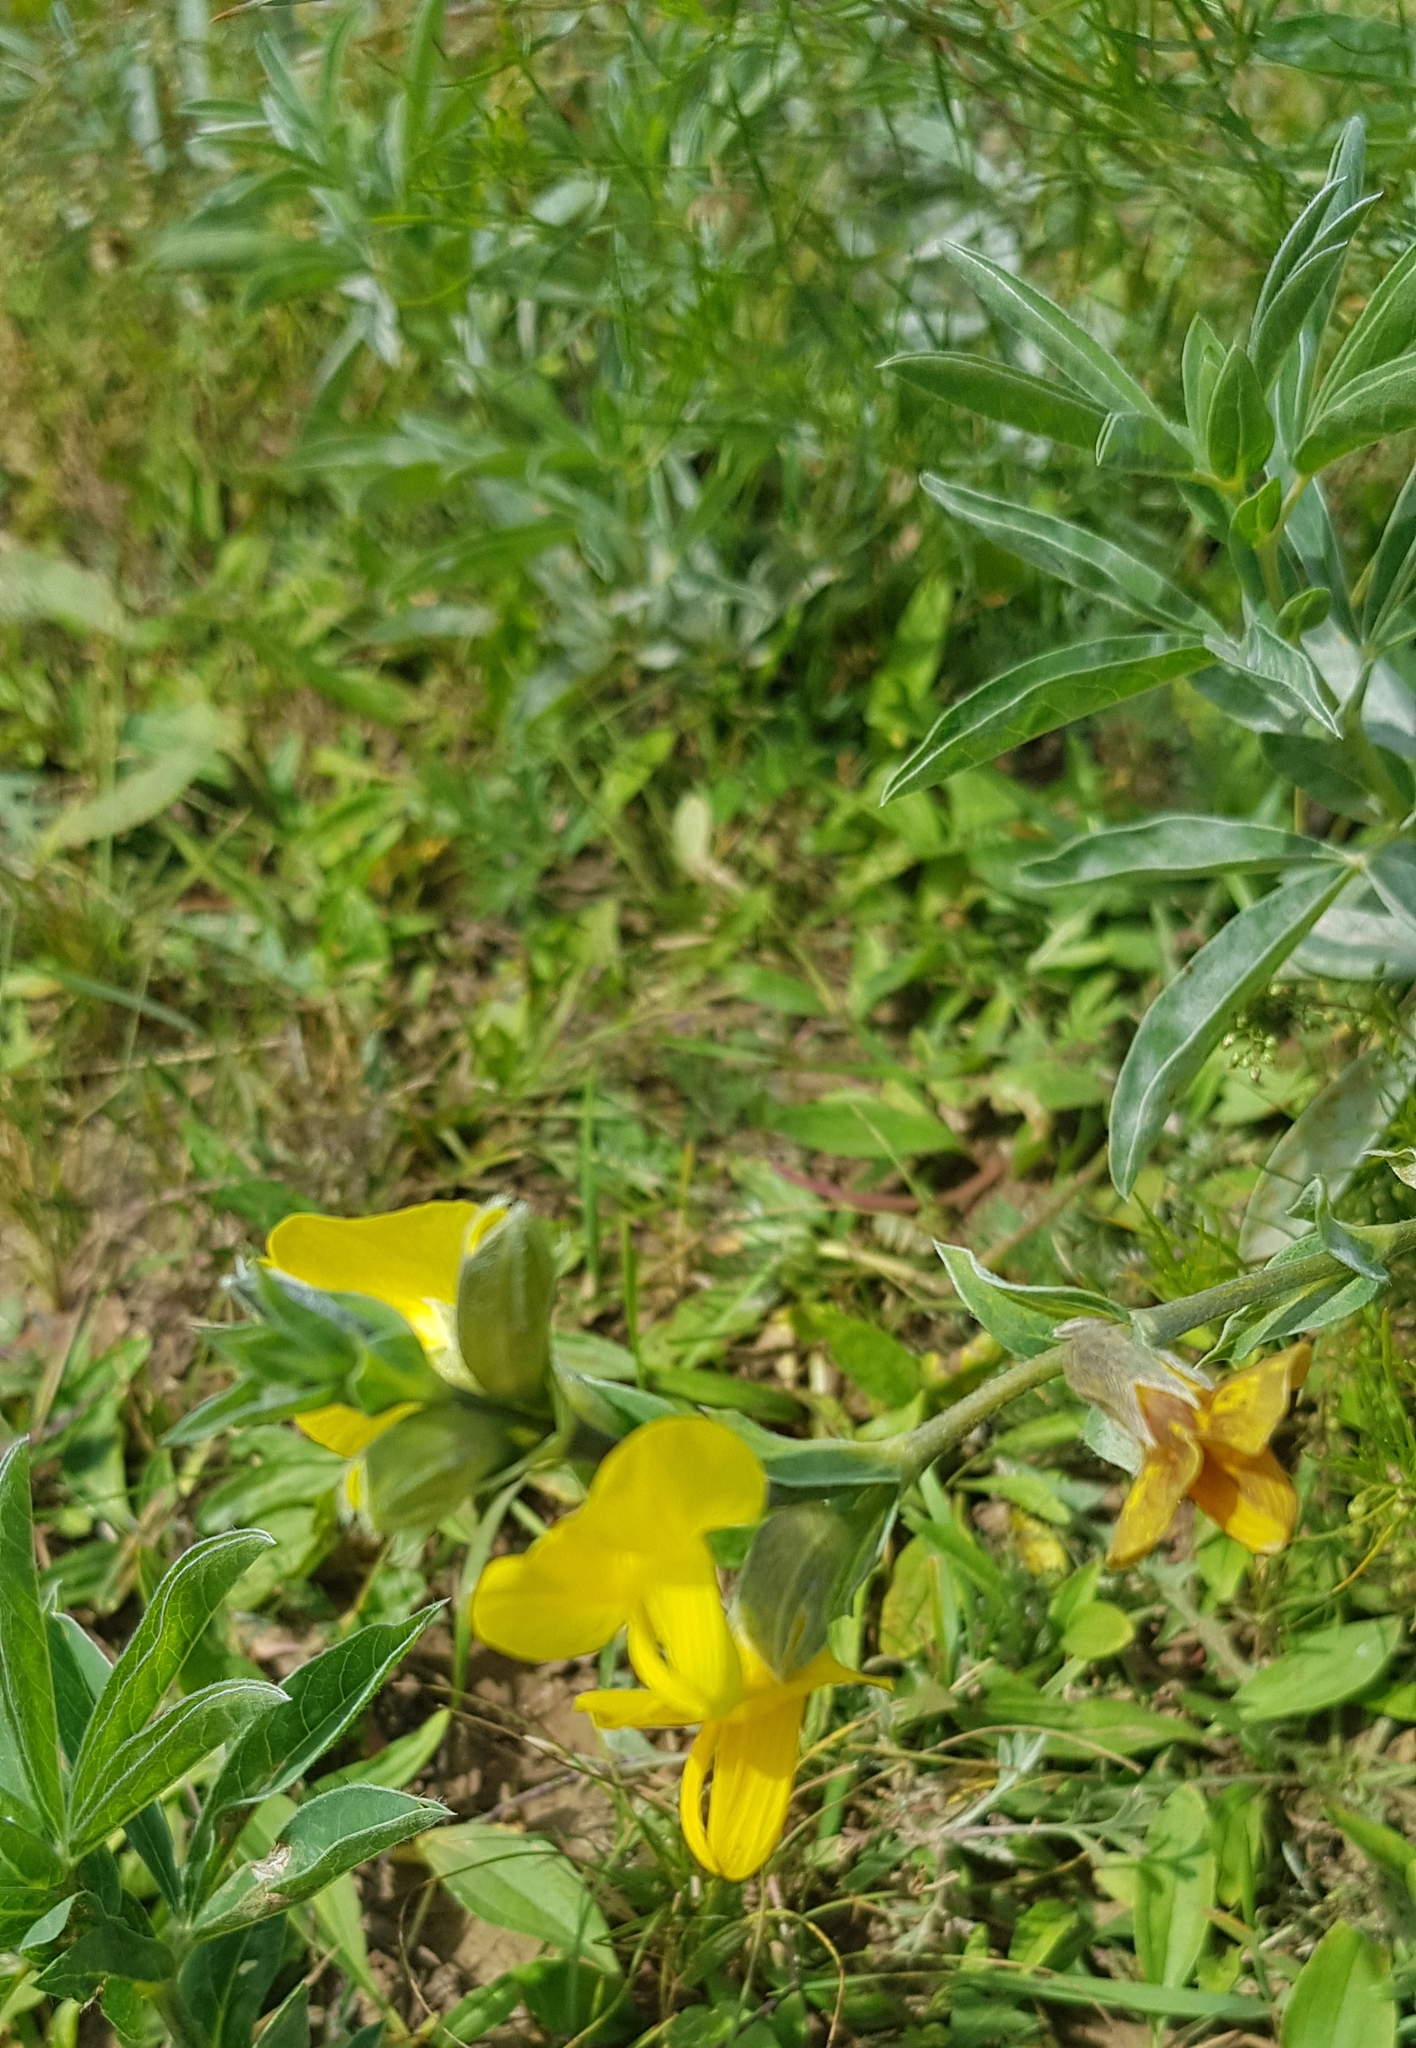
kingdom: Plantae
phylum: Tracheophyta
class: Magnoliopsida
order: Fabales
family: Fabaceae
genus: Thermopsis
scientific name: Thermopsis dahurica
